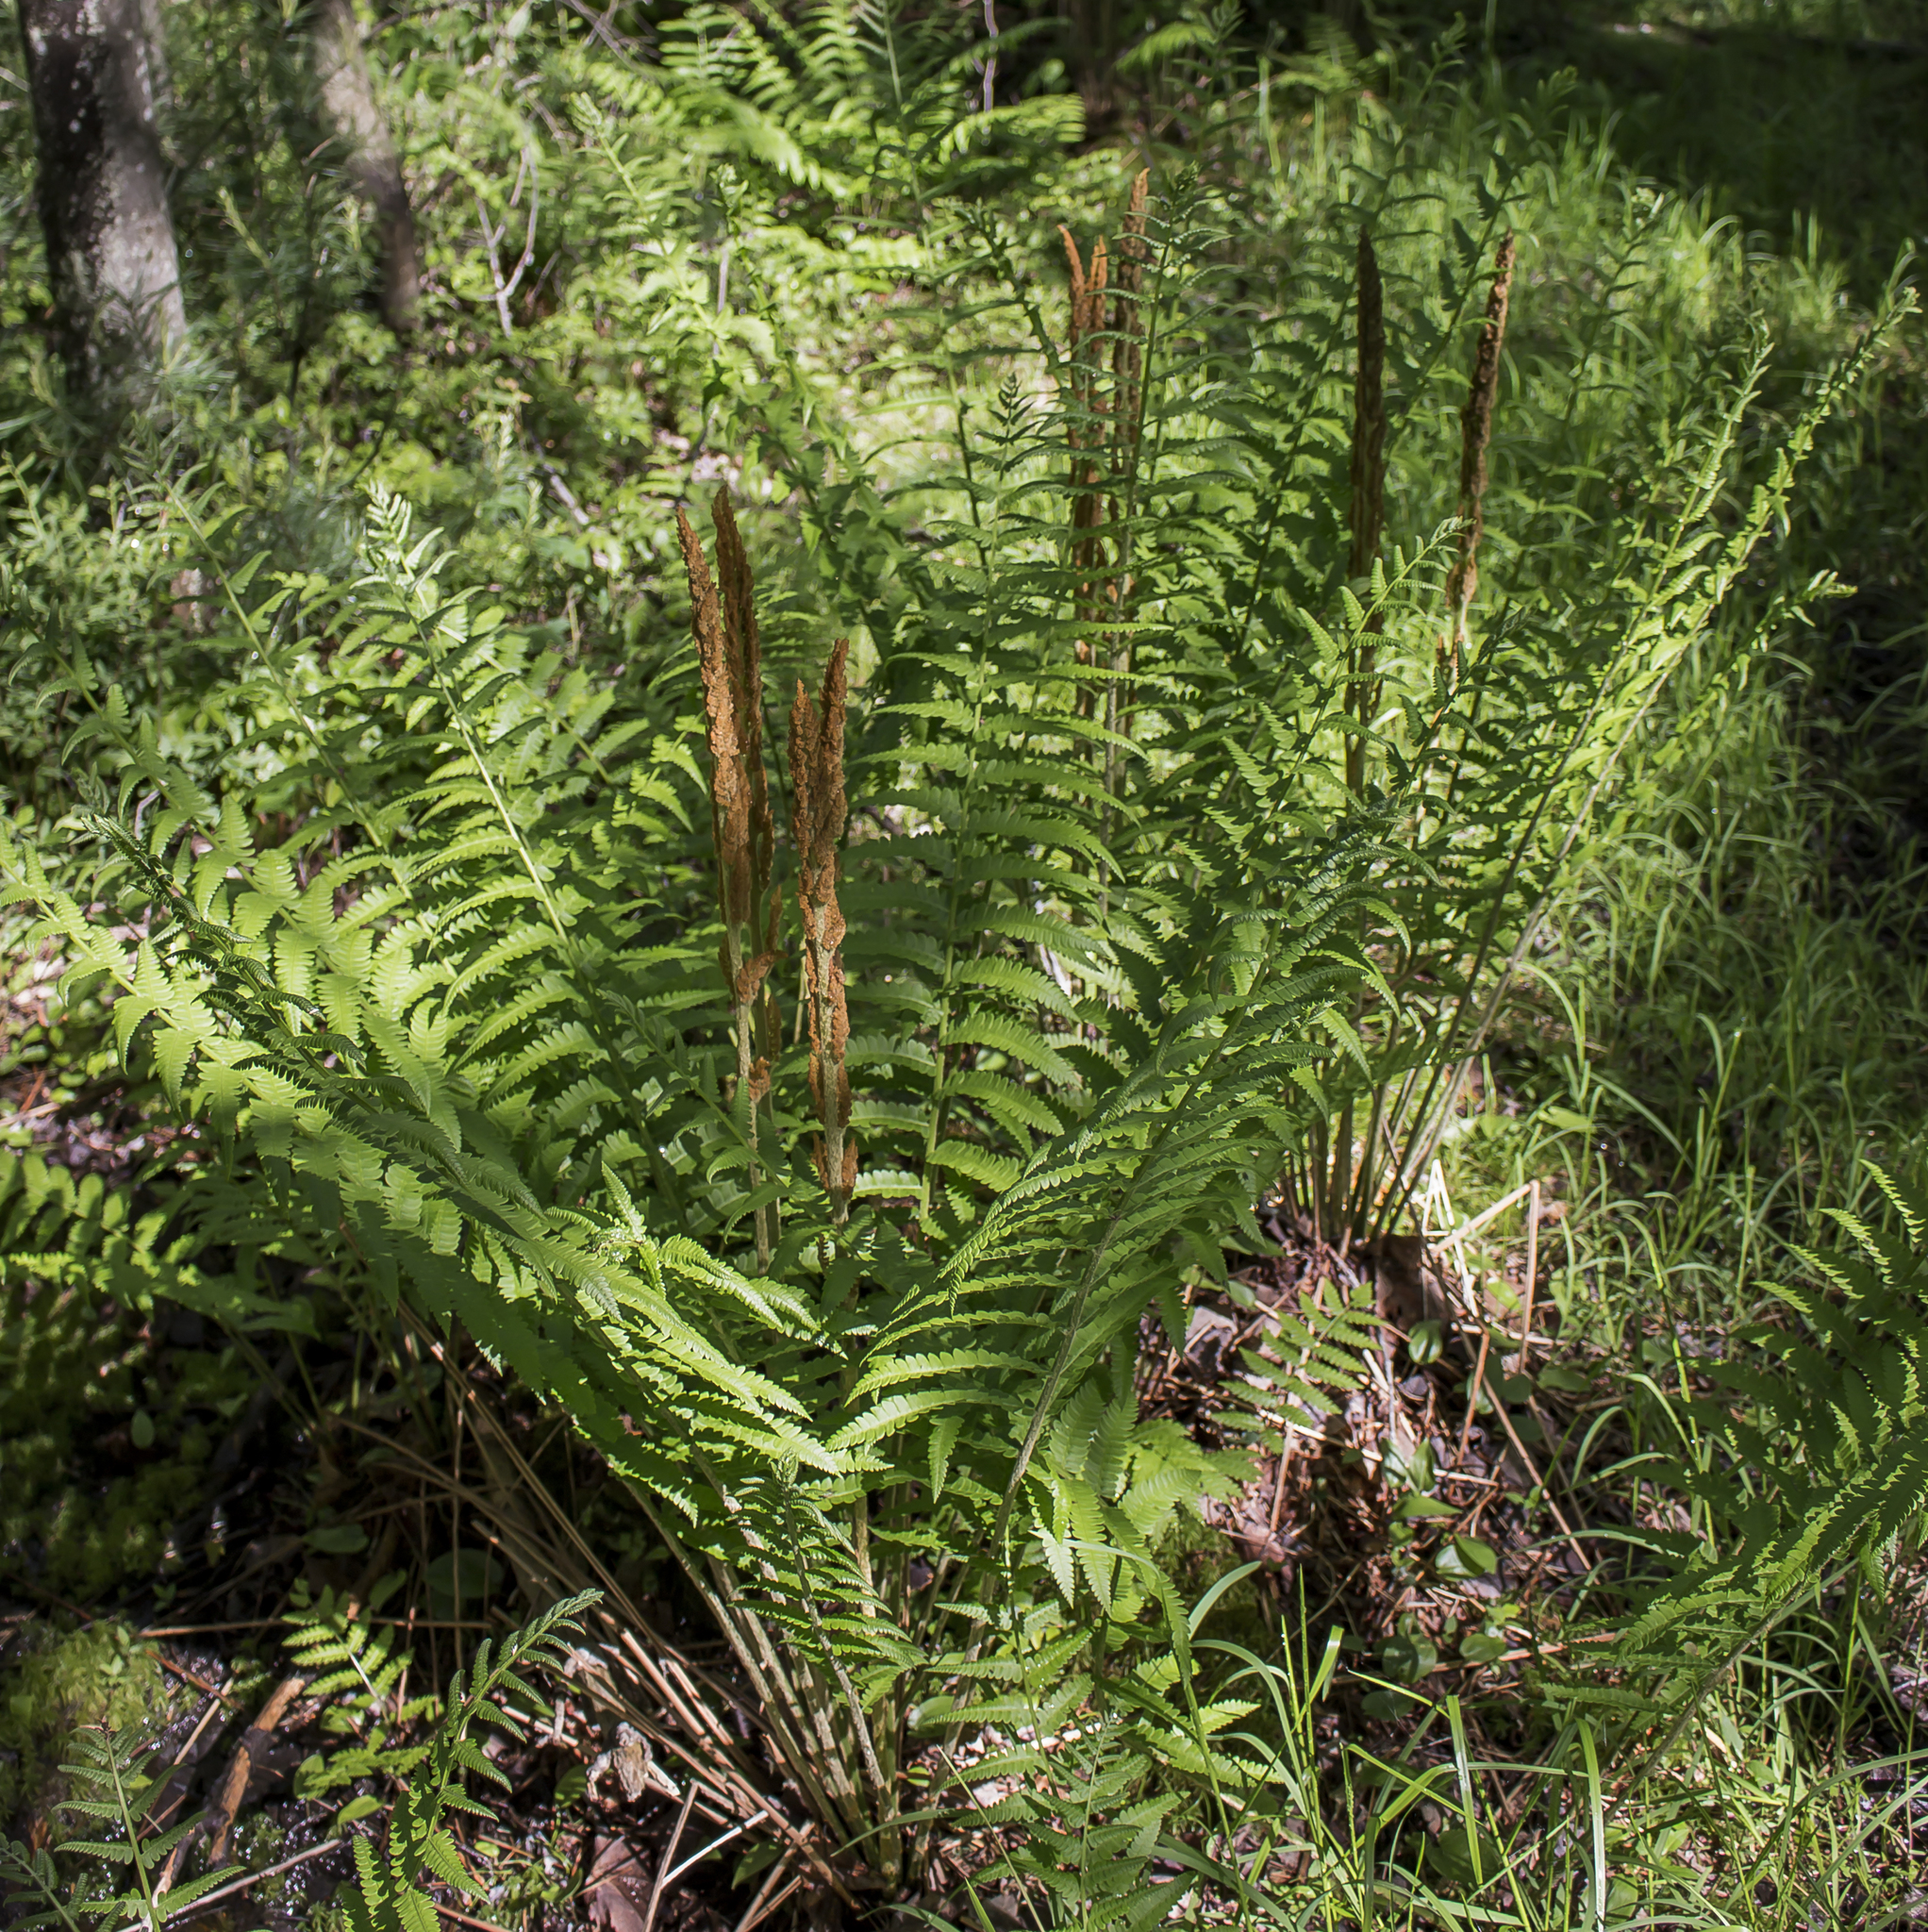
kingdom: Plantae
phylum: Tracheophyta
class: Polypodiopsida
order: Osmundales
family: Osmundaceae
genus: Osmundastrum
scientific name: Osmundastrum cinnamomeum
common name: Cinnamon fern
